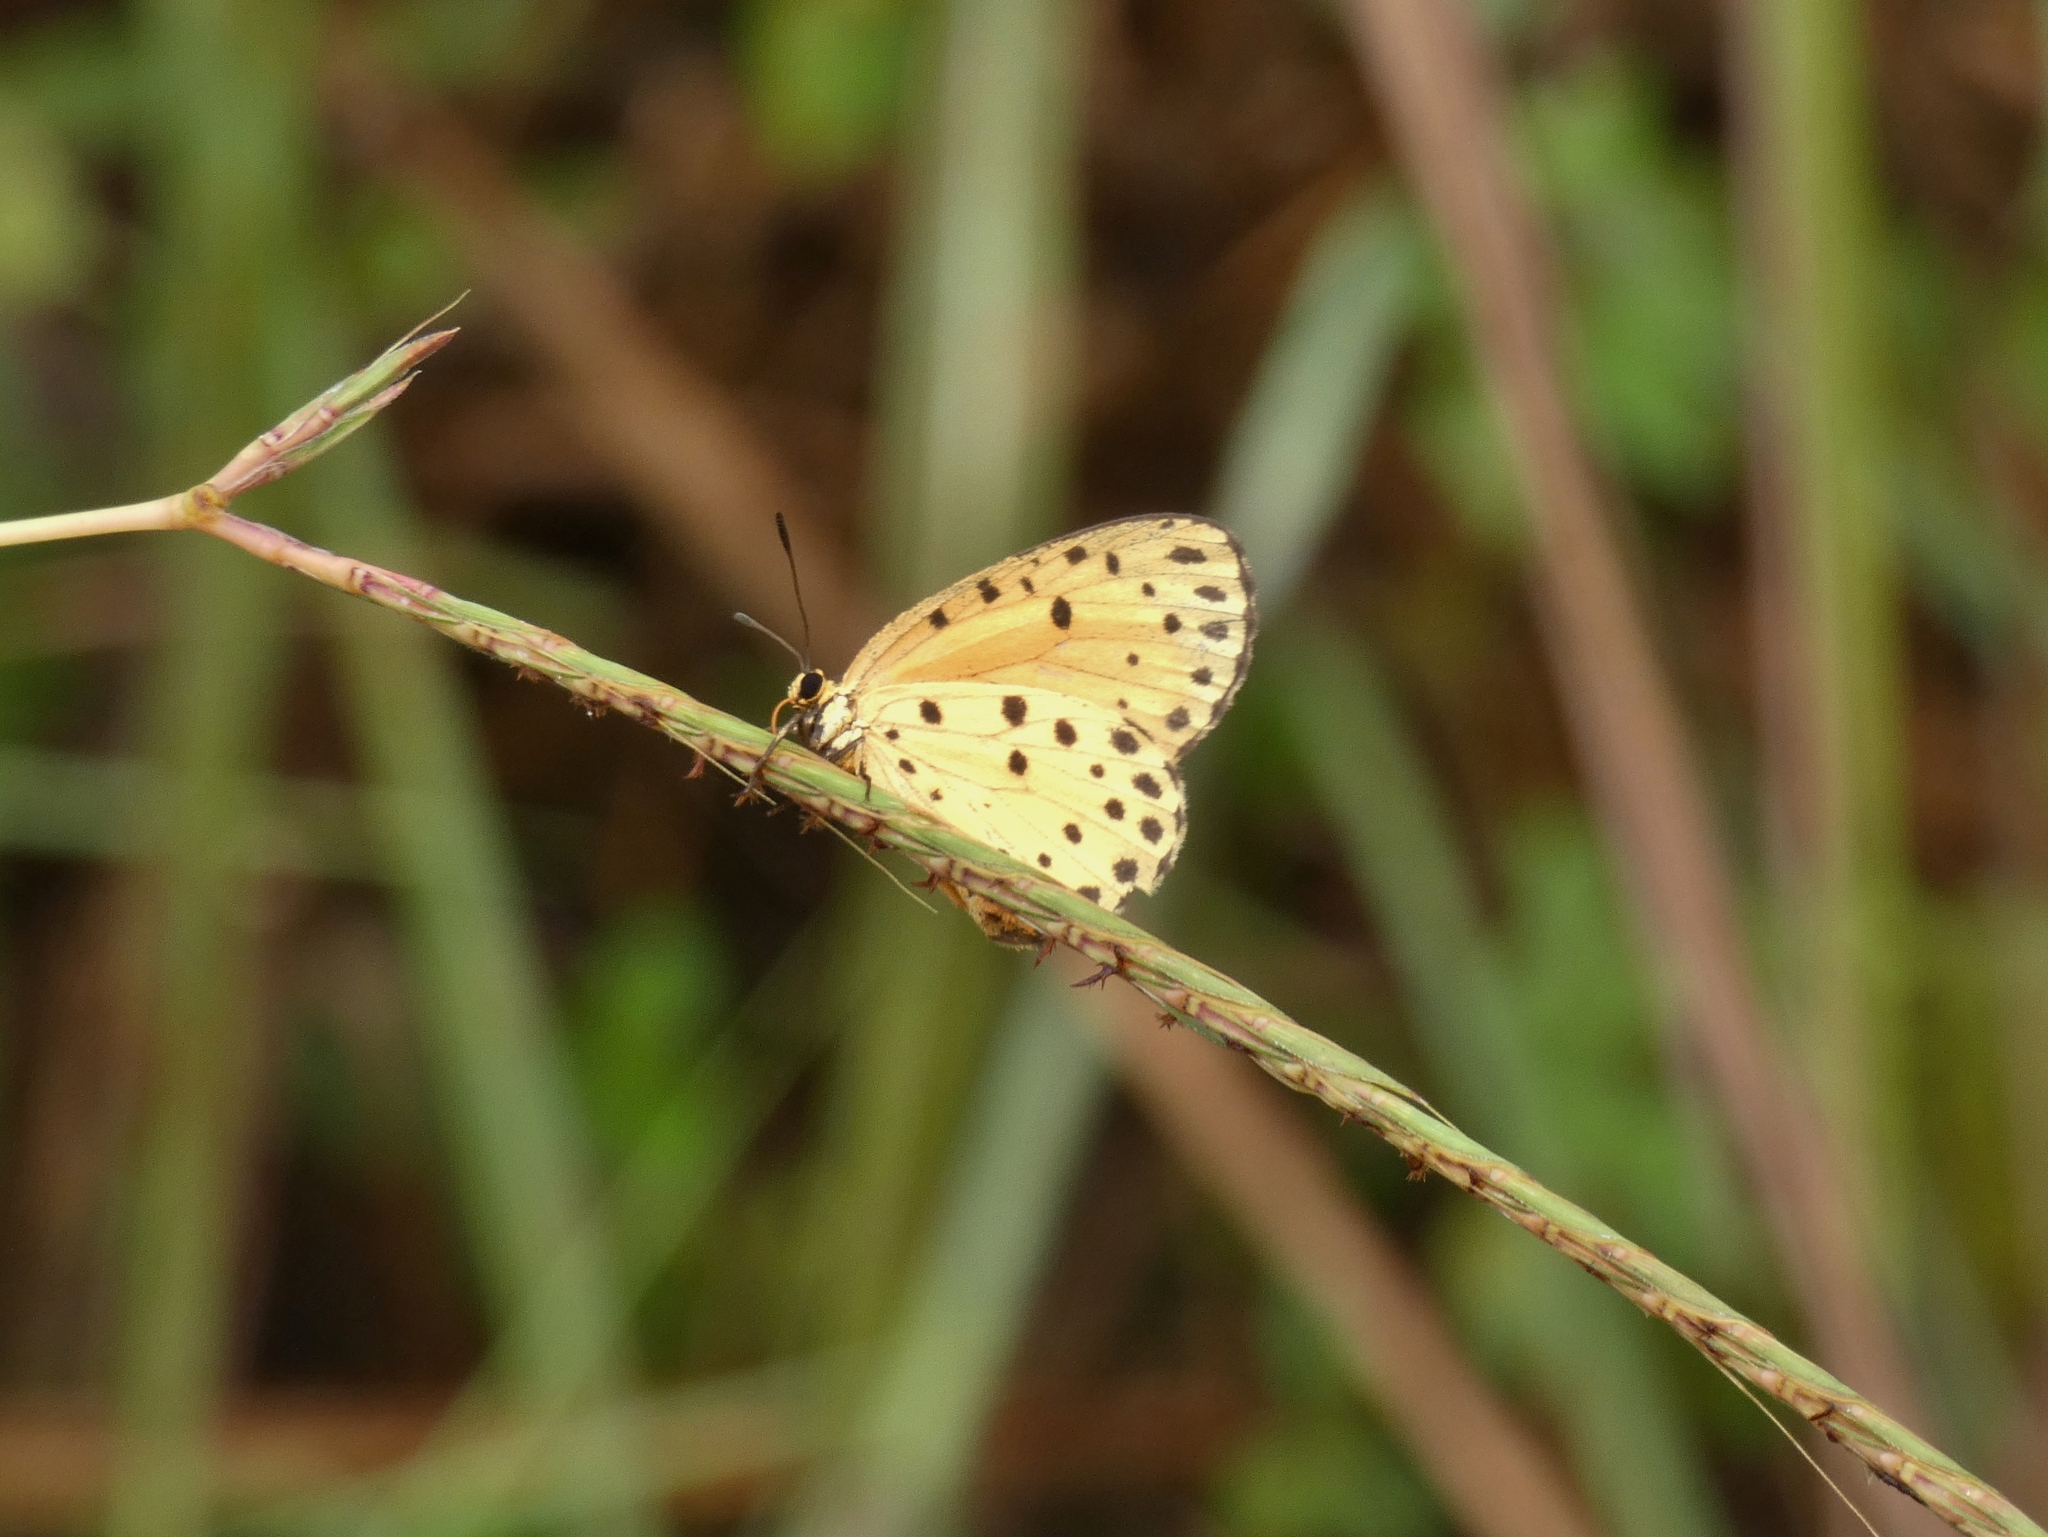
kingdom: Animalia
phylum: Arthropoda
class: Insecta
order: Lepidoptera
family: Lycaenidae
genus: Pentila
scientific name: Pentila pauli
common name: Paul's pentila
